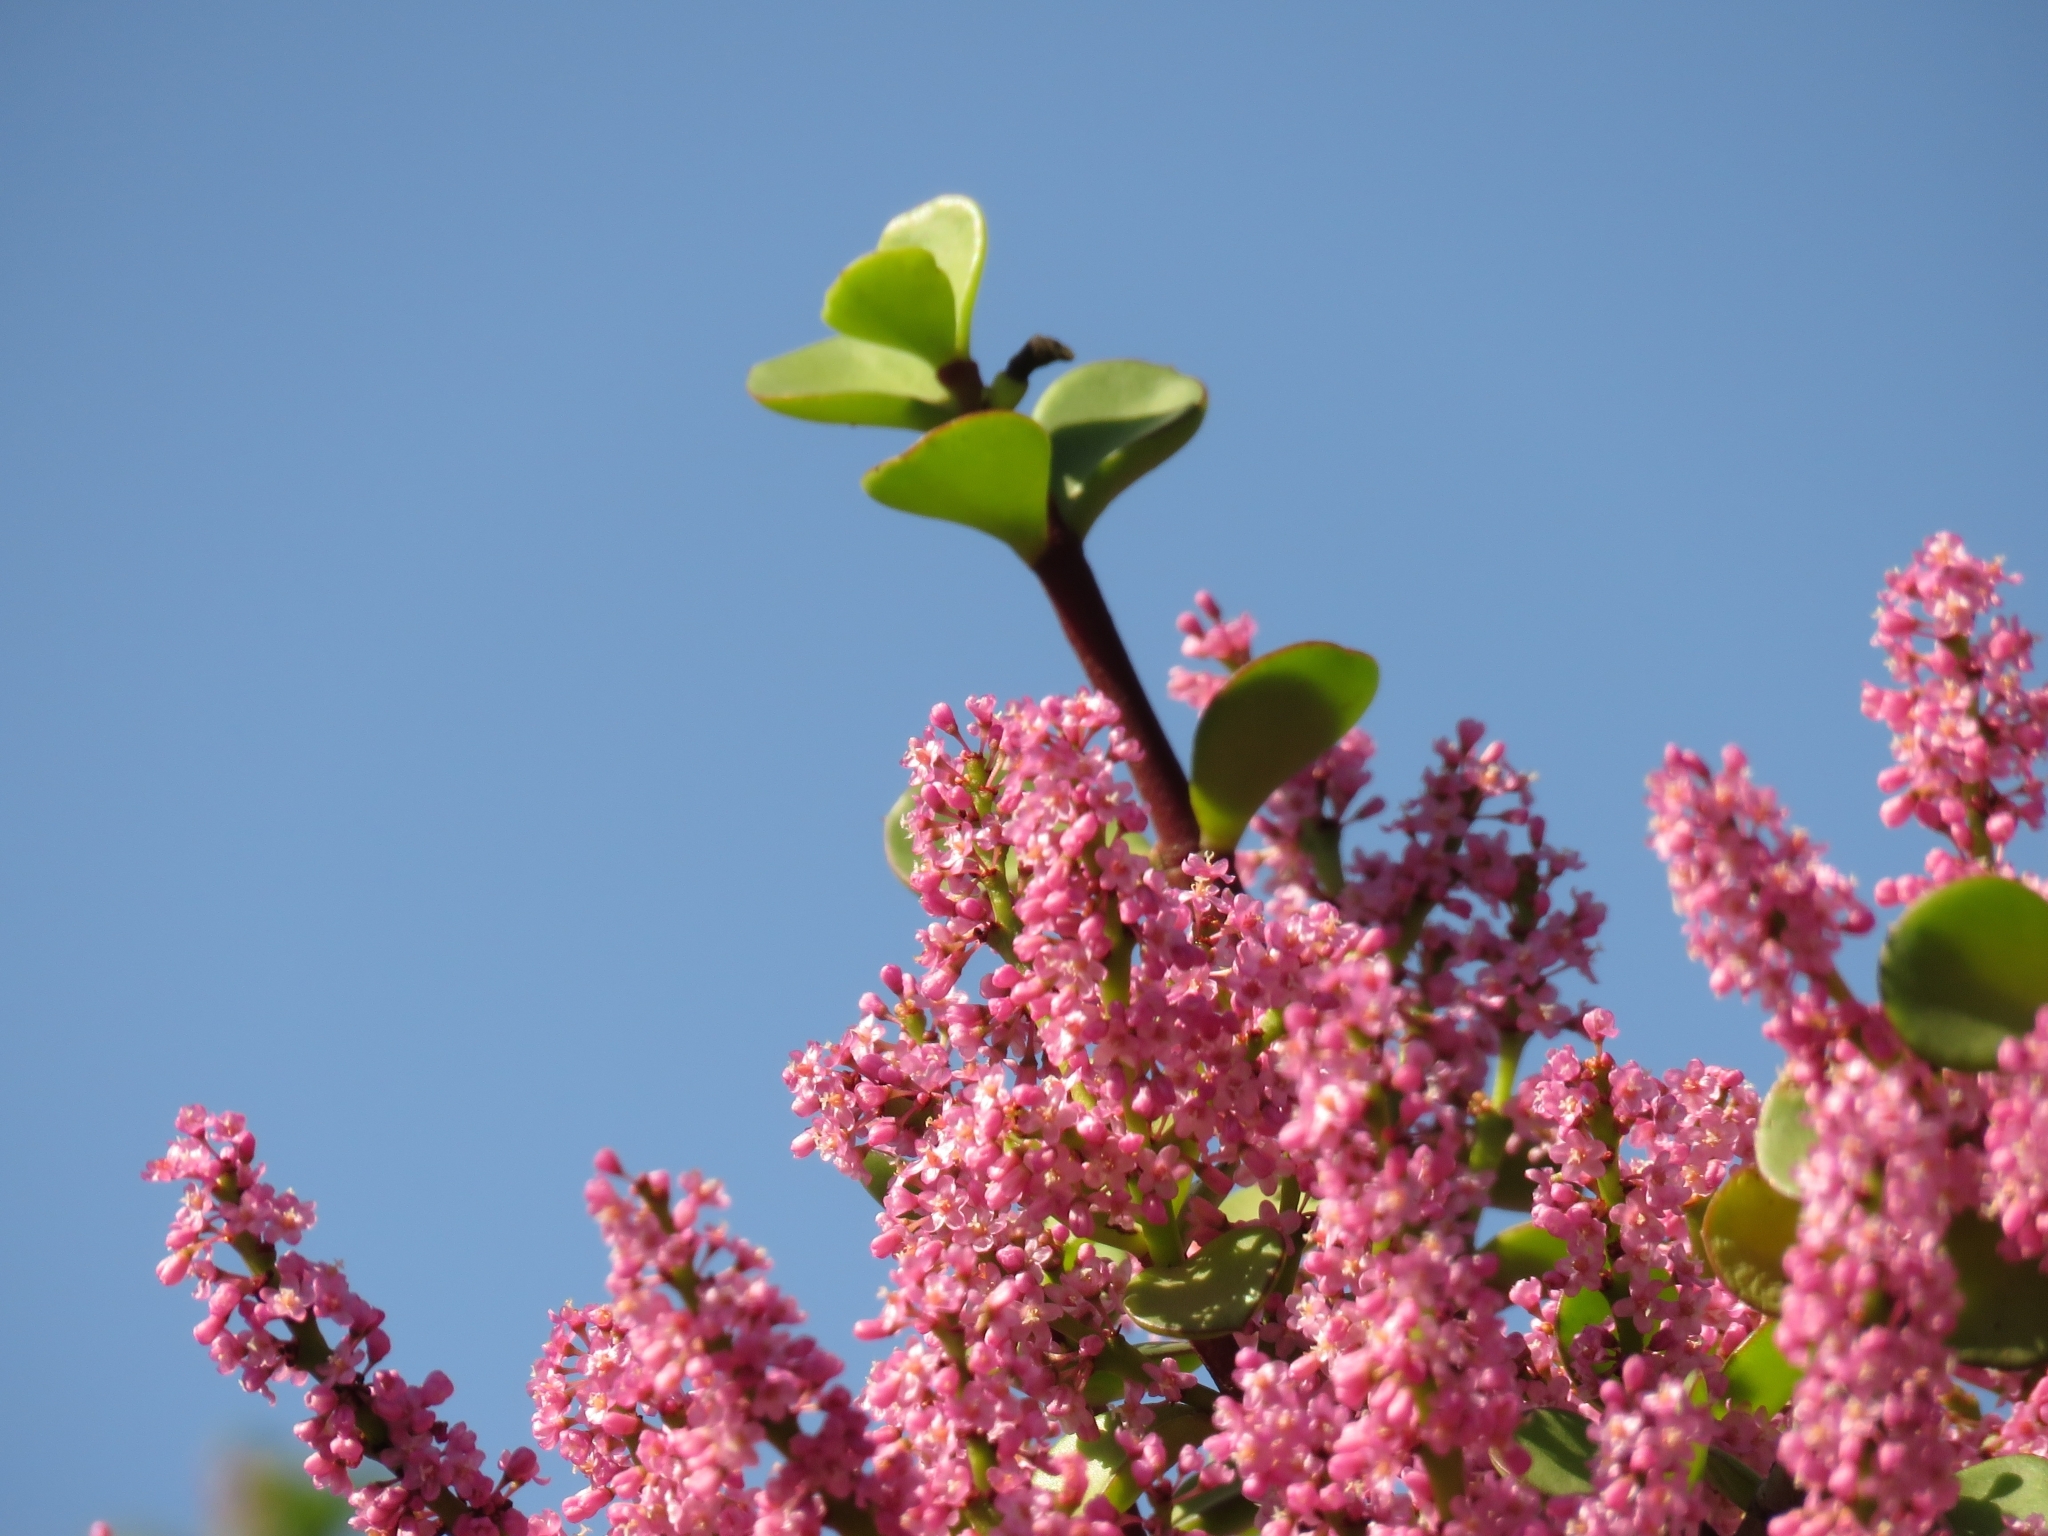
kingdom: Plantae
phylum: Tracheophyta
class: Magnoliopsida
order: Caryophyllales
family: Didiereaceae
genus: Portulacaria
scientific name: Portulacaria afra
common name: Elephant-bush
